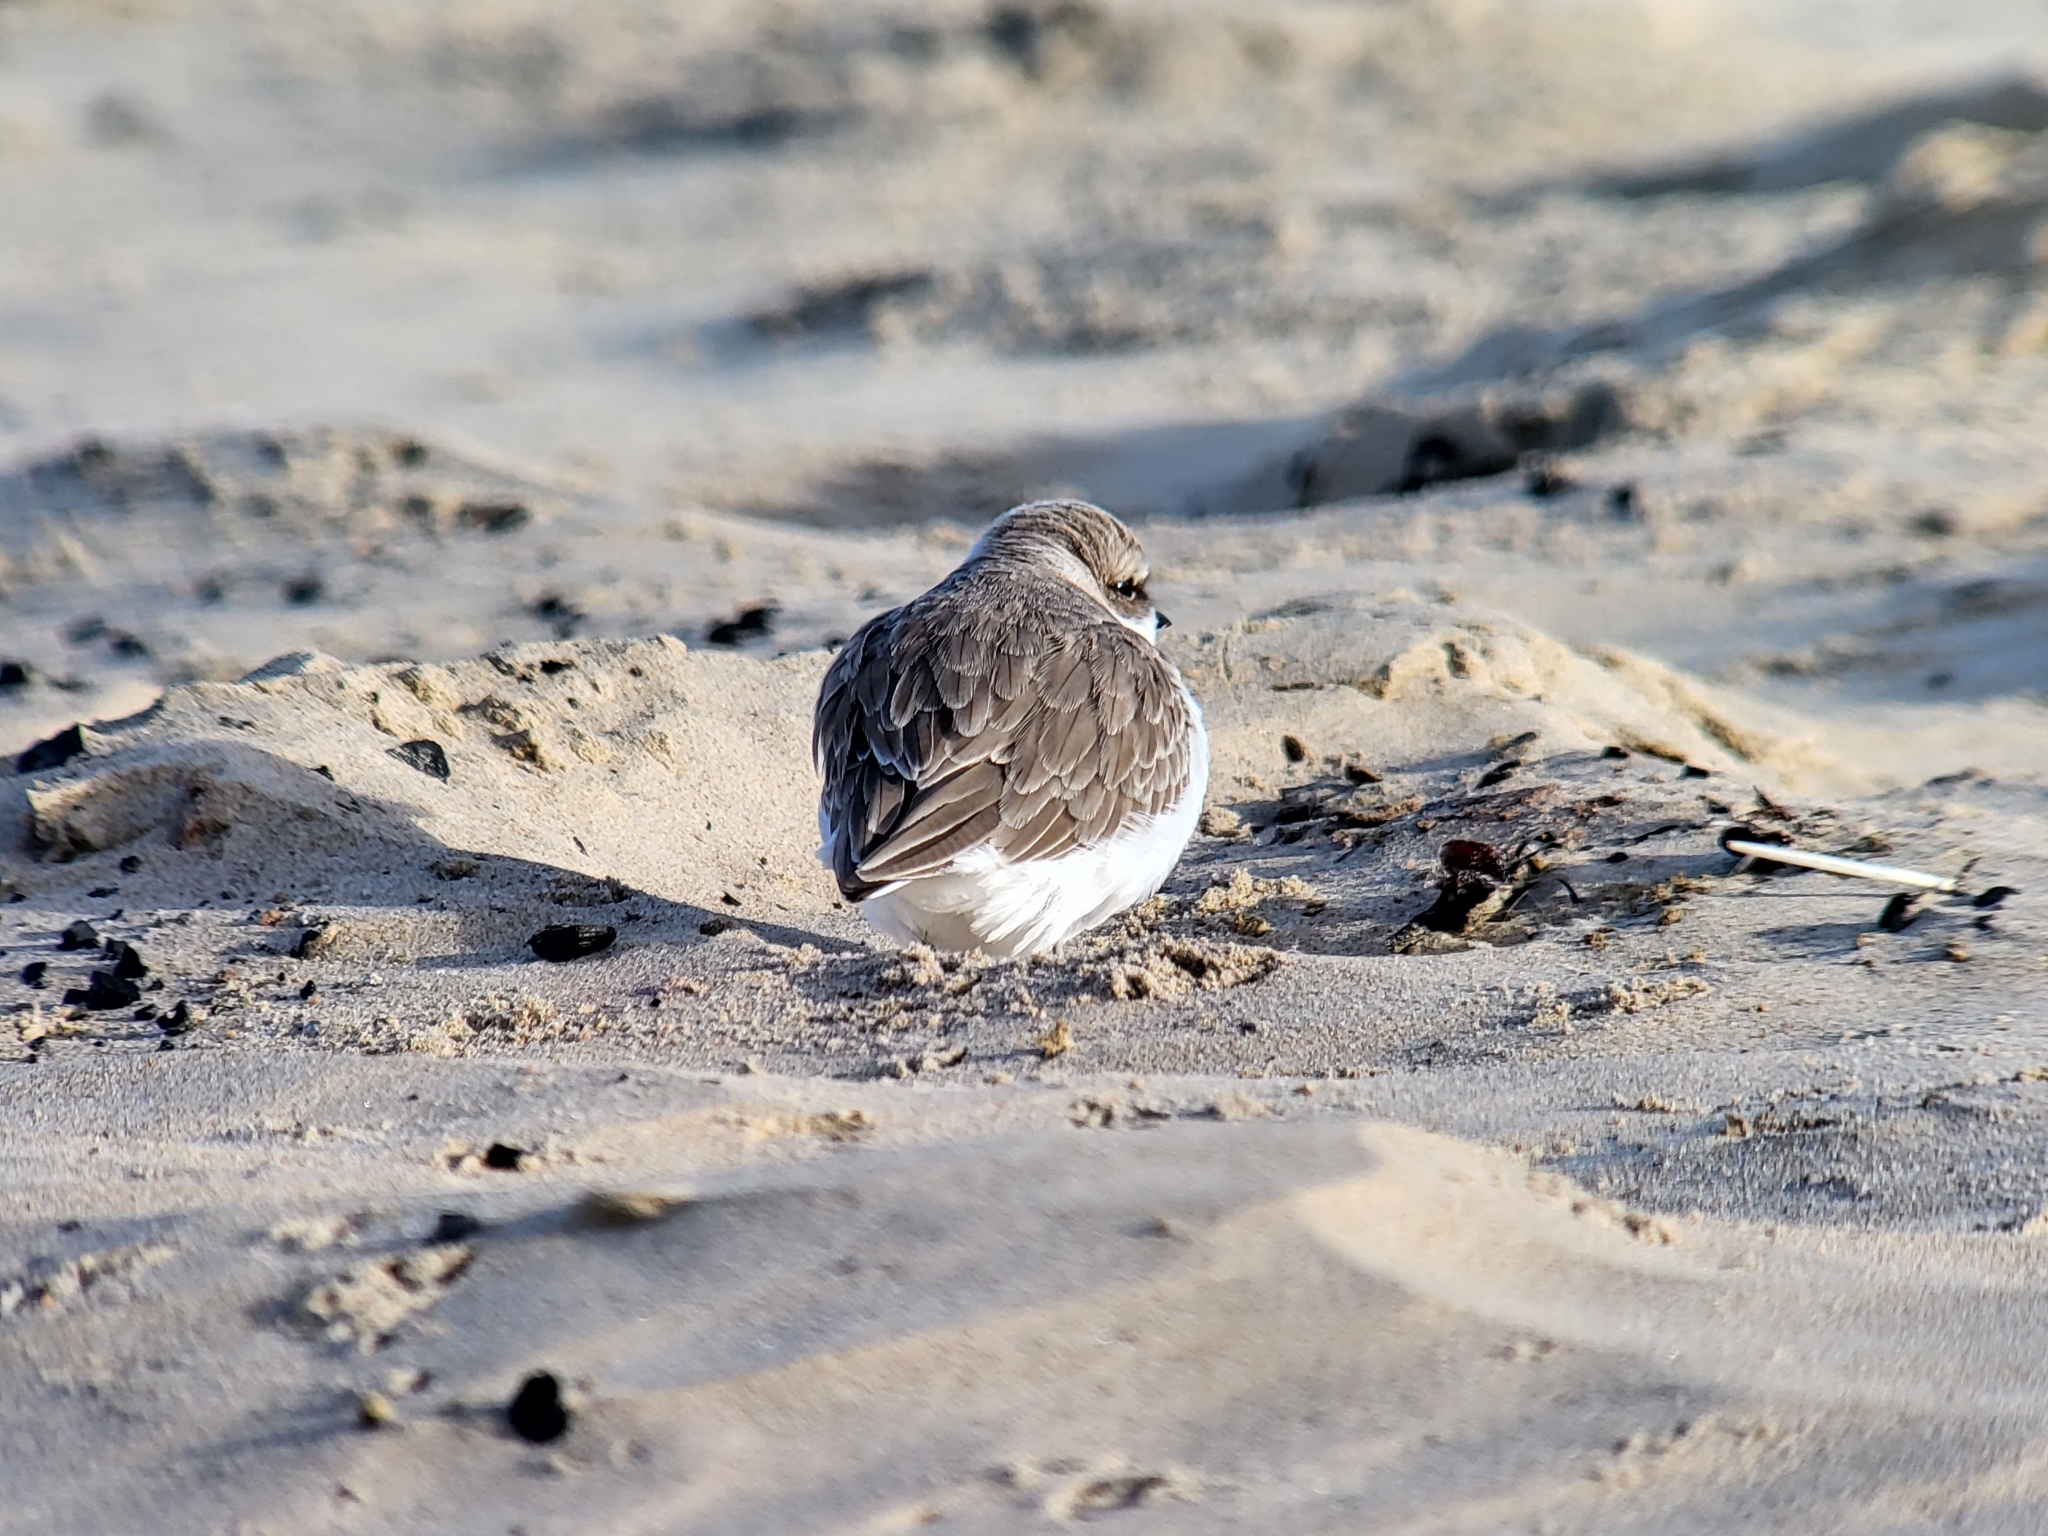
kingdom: Animalia
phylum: Chordata
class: Aves
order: Charadriiformes
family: Charadriidae
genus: Anarhynchus
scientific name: Anarhynchus
